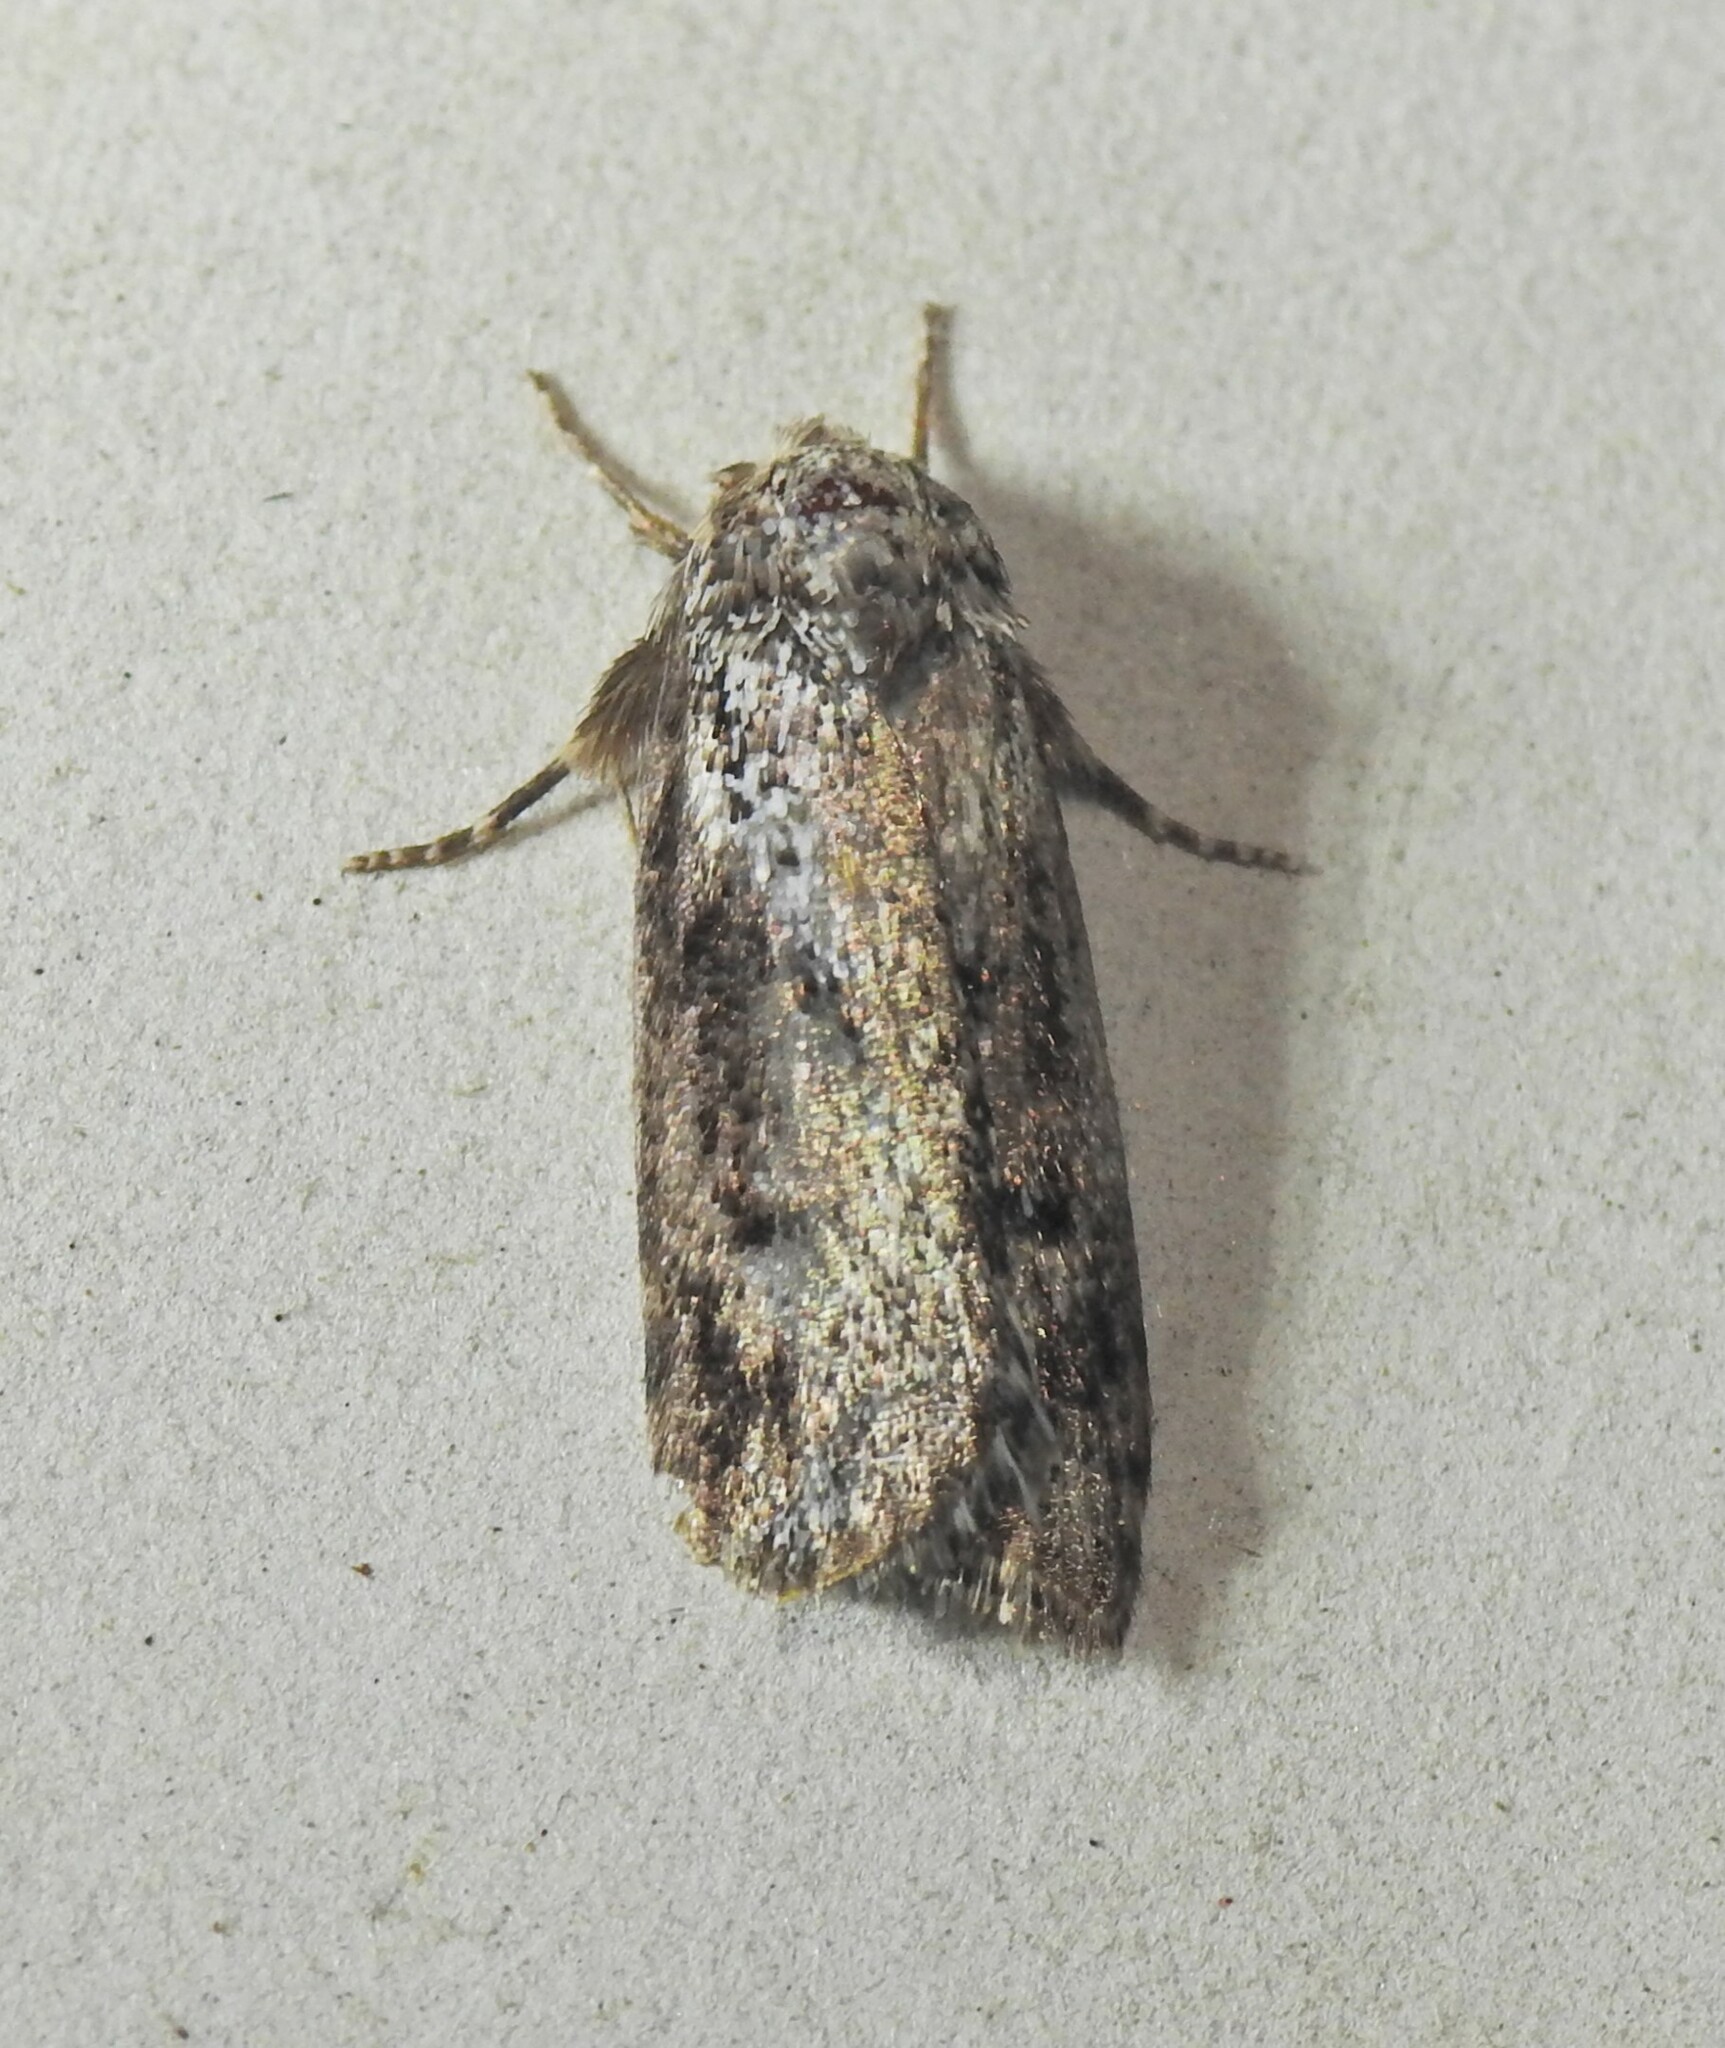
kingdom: Animalia
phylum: Arthropoda
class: Insecta
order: Lepidoptera
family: Xyloryctidae
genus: Cryptophasa
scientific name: Cryptophasa molaris
